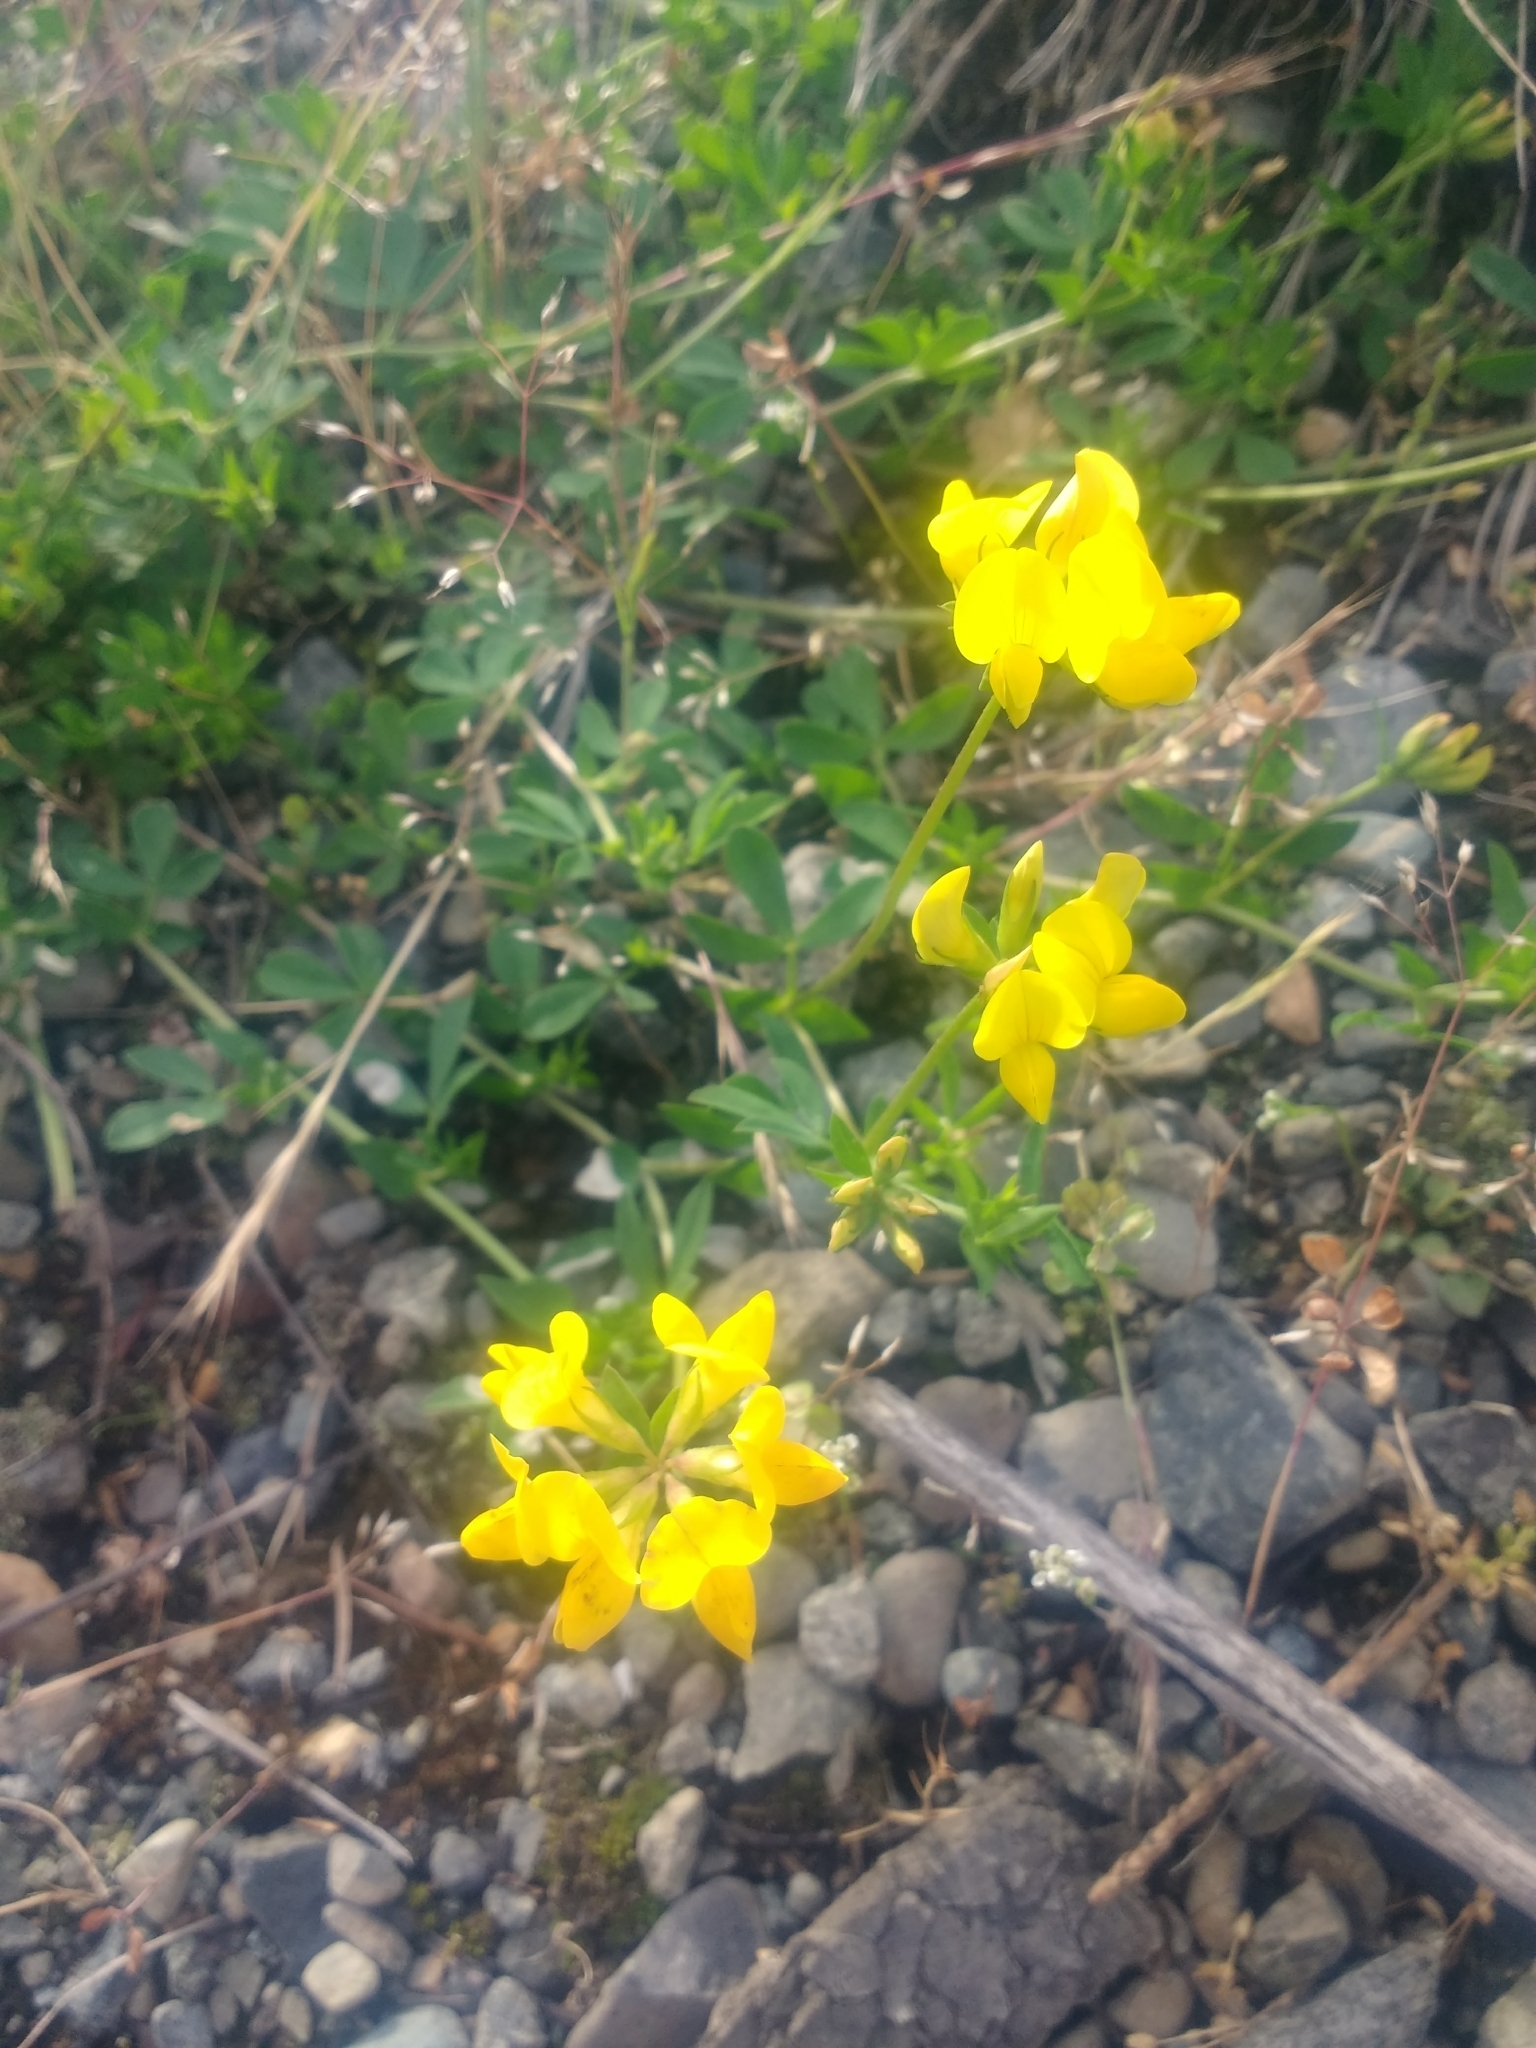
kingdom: Plantae
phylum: Tracheophyta
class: Magnoliopsida
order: Fabales
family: Fabaceae
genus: Lotus
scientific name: Lotus corniculatus
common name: Common bird's-foot-trefoil
